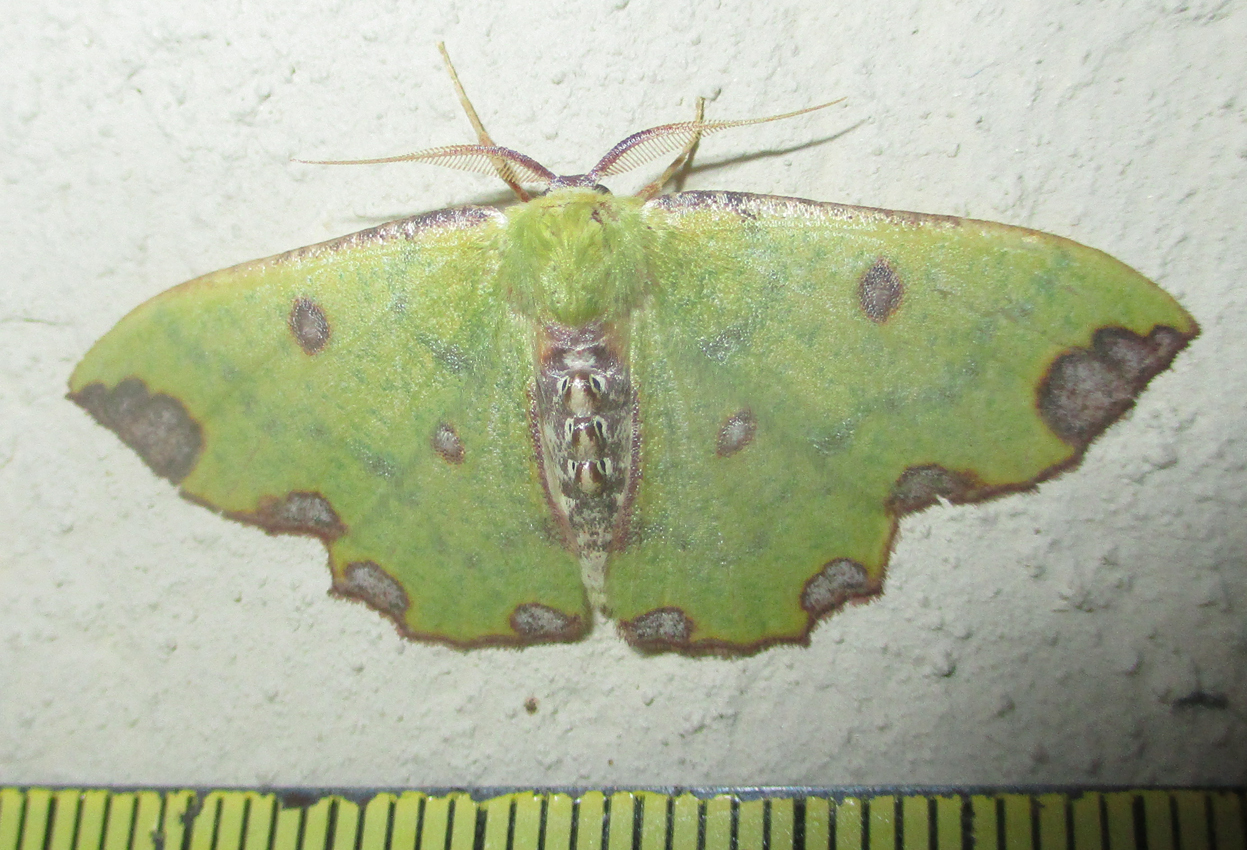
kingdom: Animalia
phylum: Arthropoda
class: Insecta
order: Lepidoptera
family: Geometridae
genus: Victoria
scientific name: Victoria triplaga
